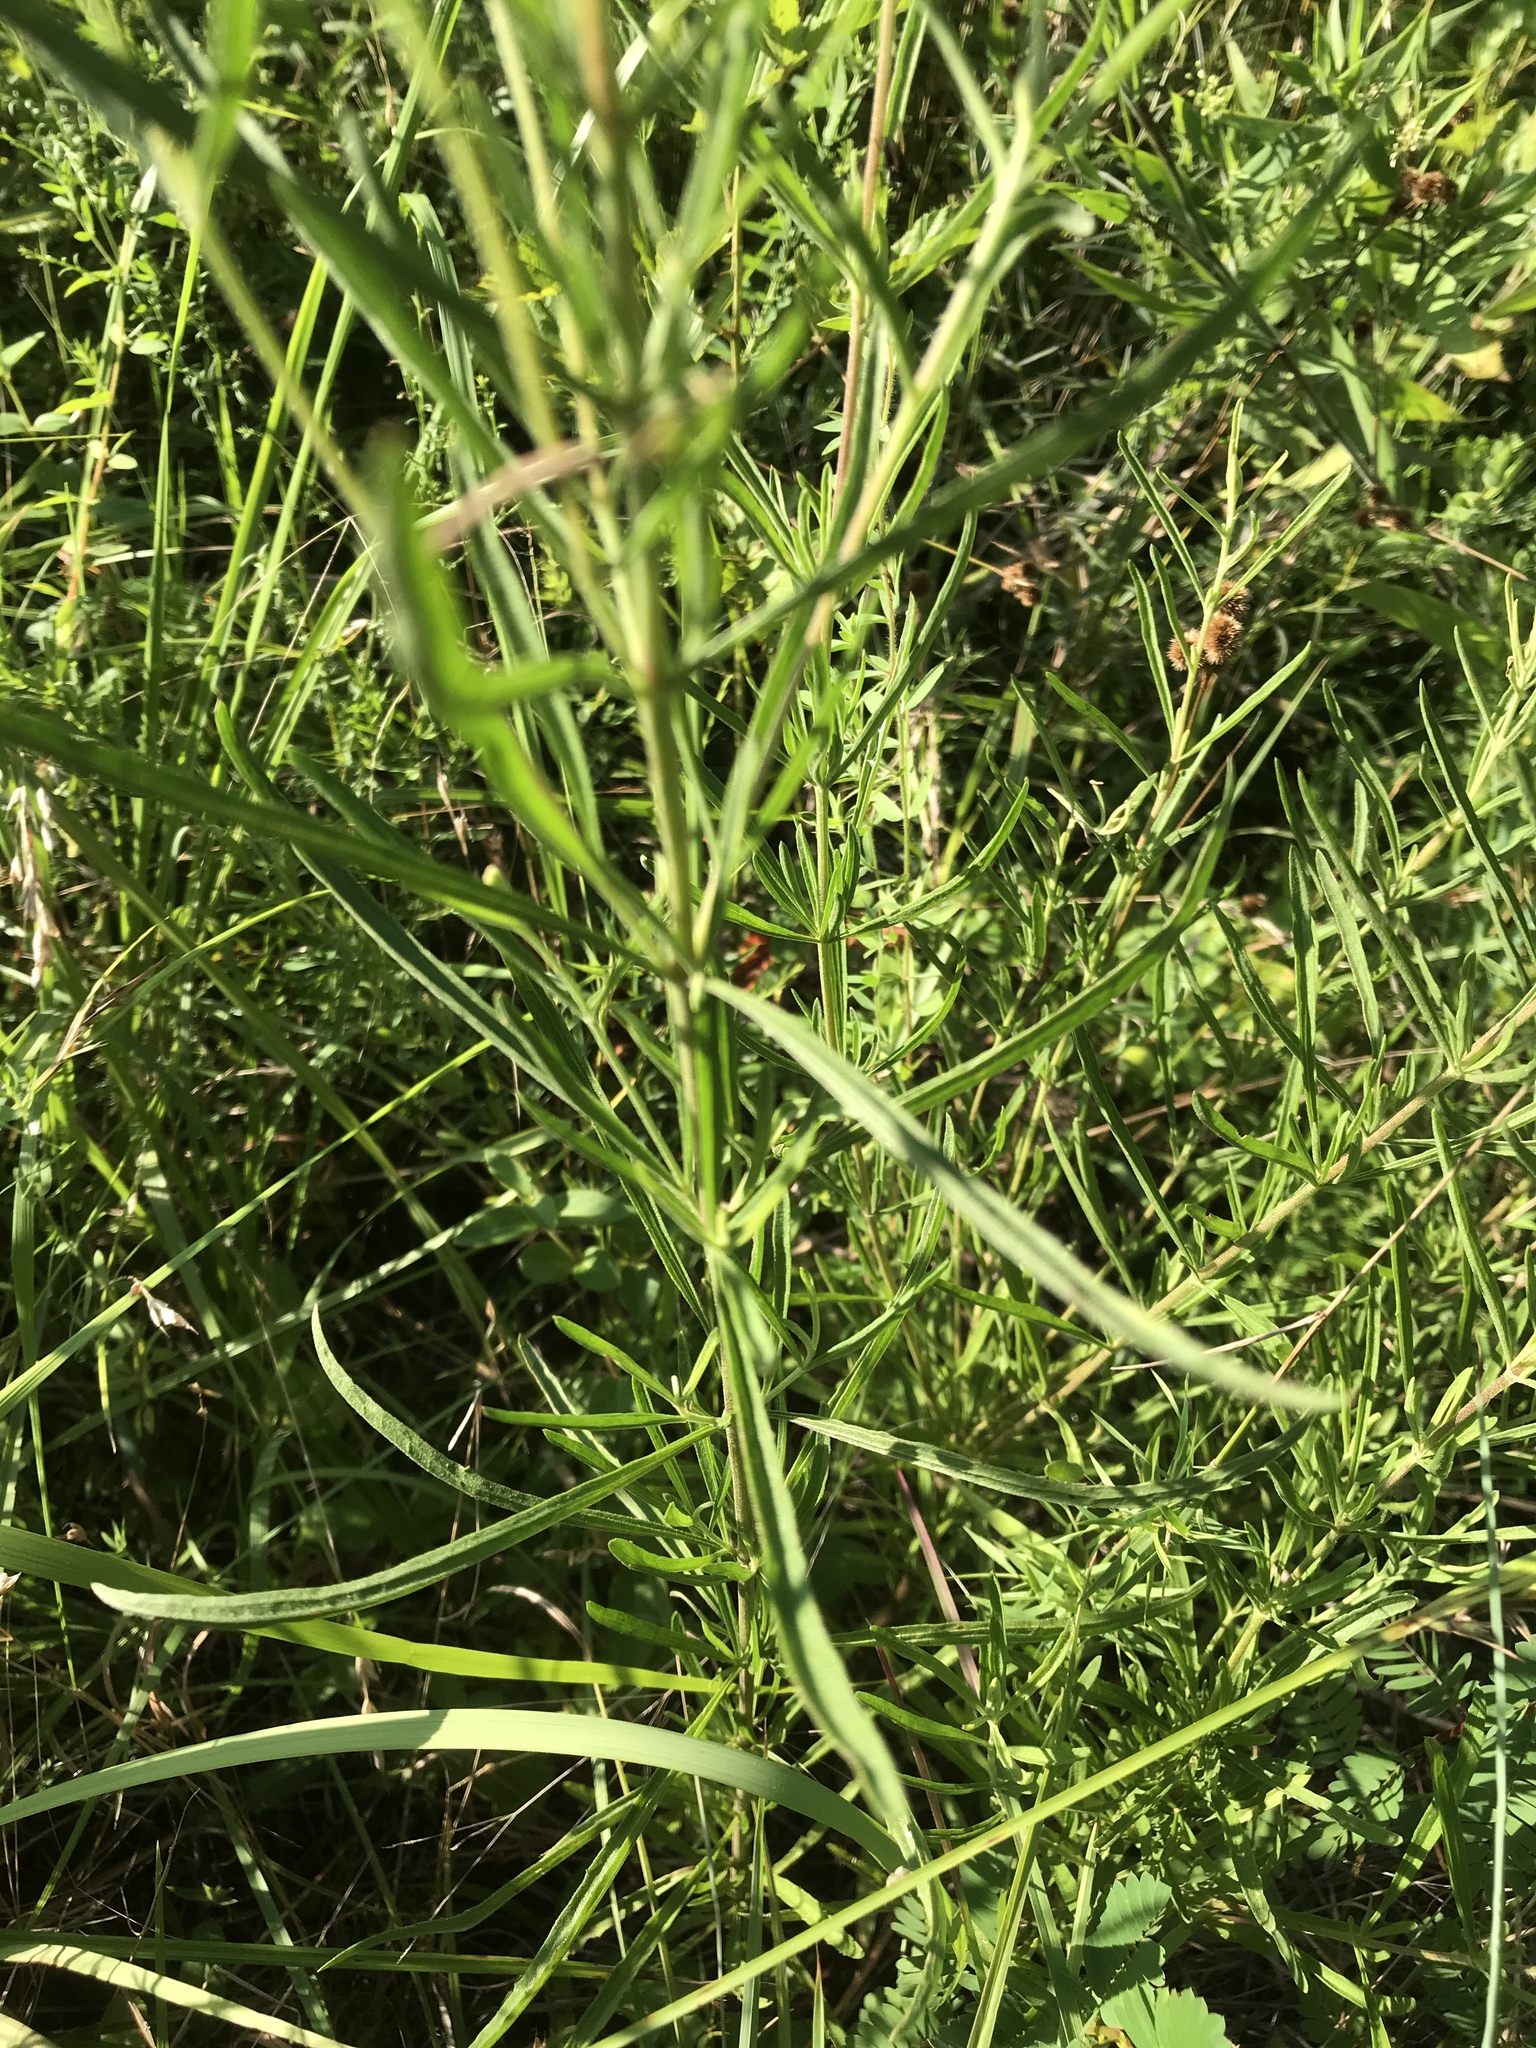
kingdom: Plantae
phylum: Tracheophyta
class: Magnoliopsida
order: Asterales
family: Asteraceae
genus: Eupatorium
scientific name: Eupatorium torreyanum
